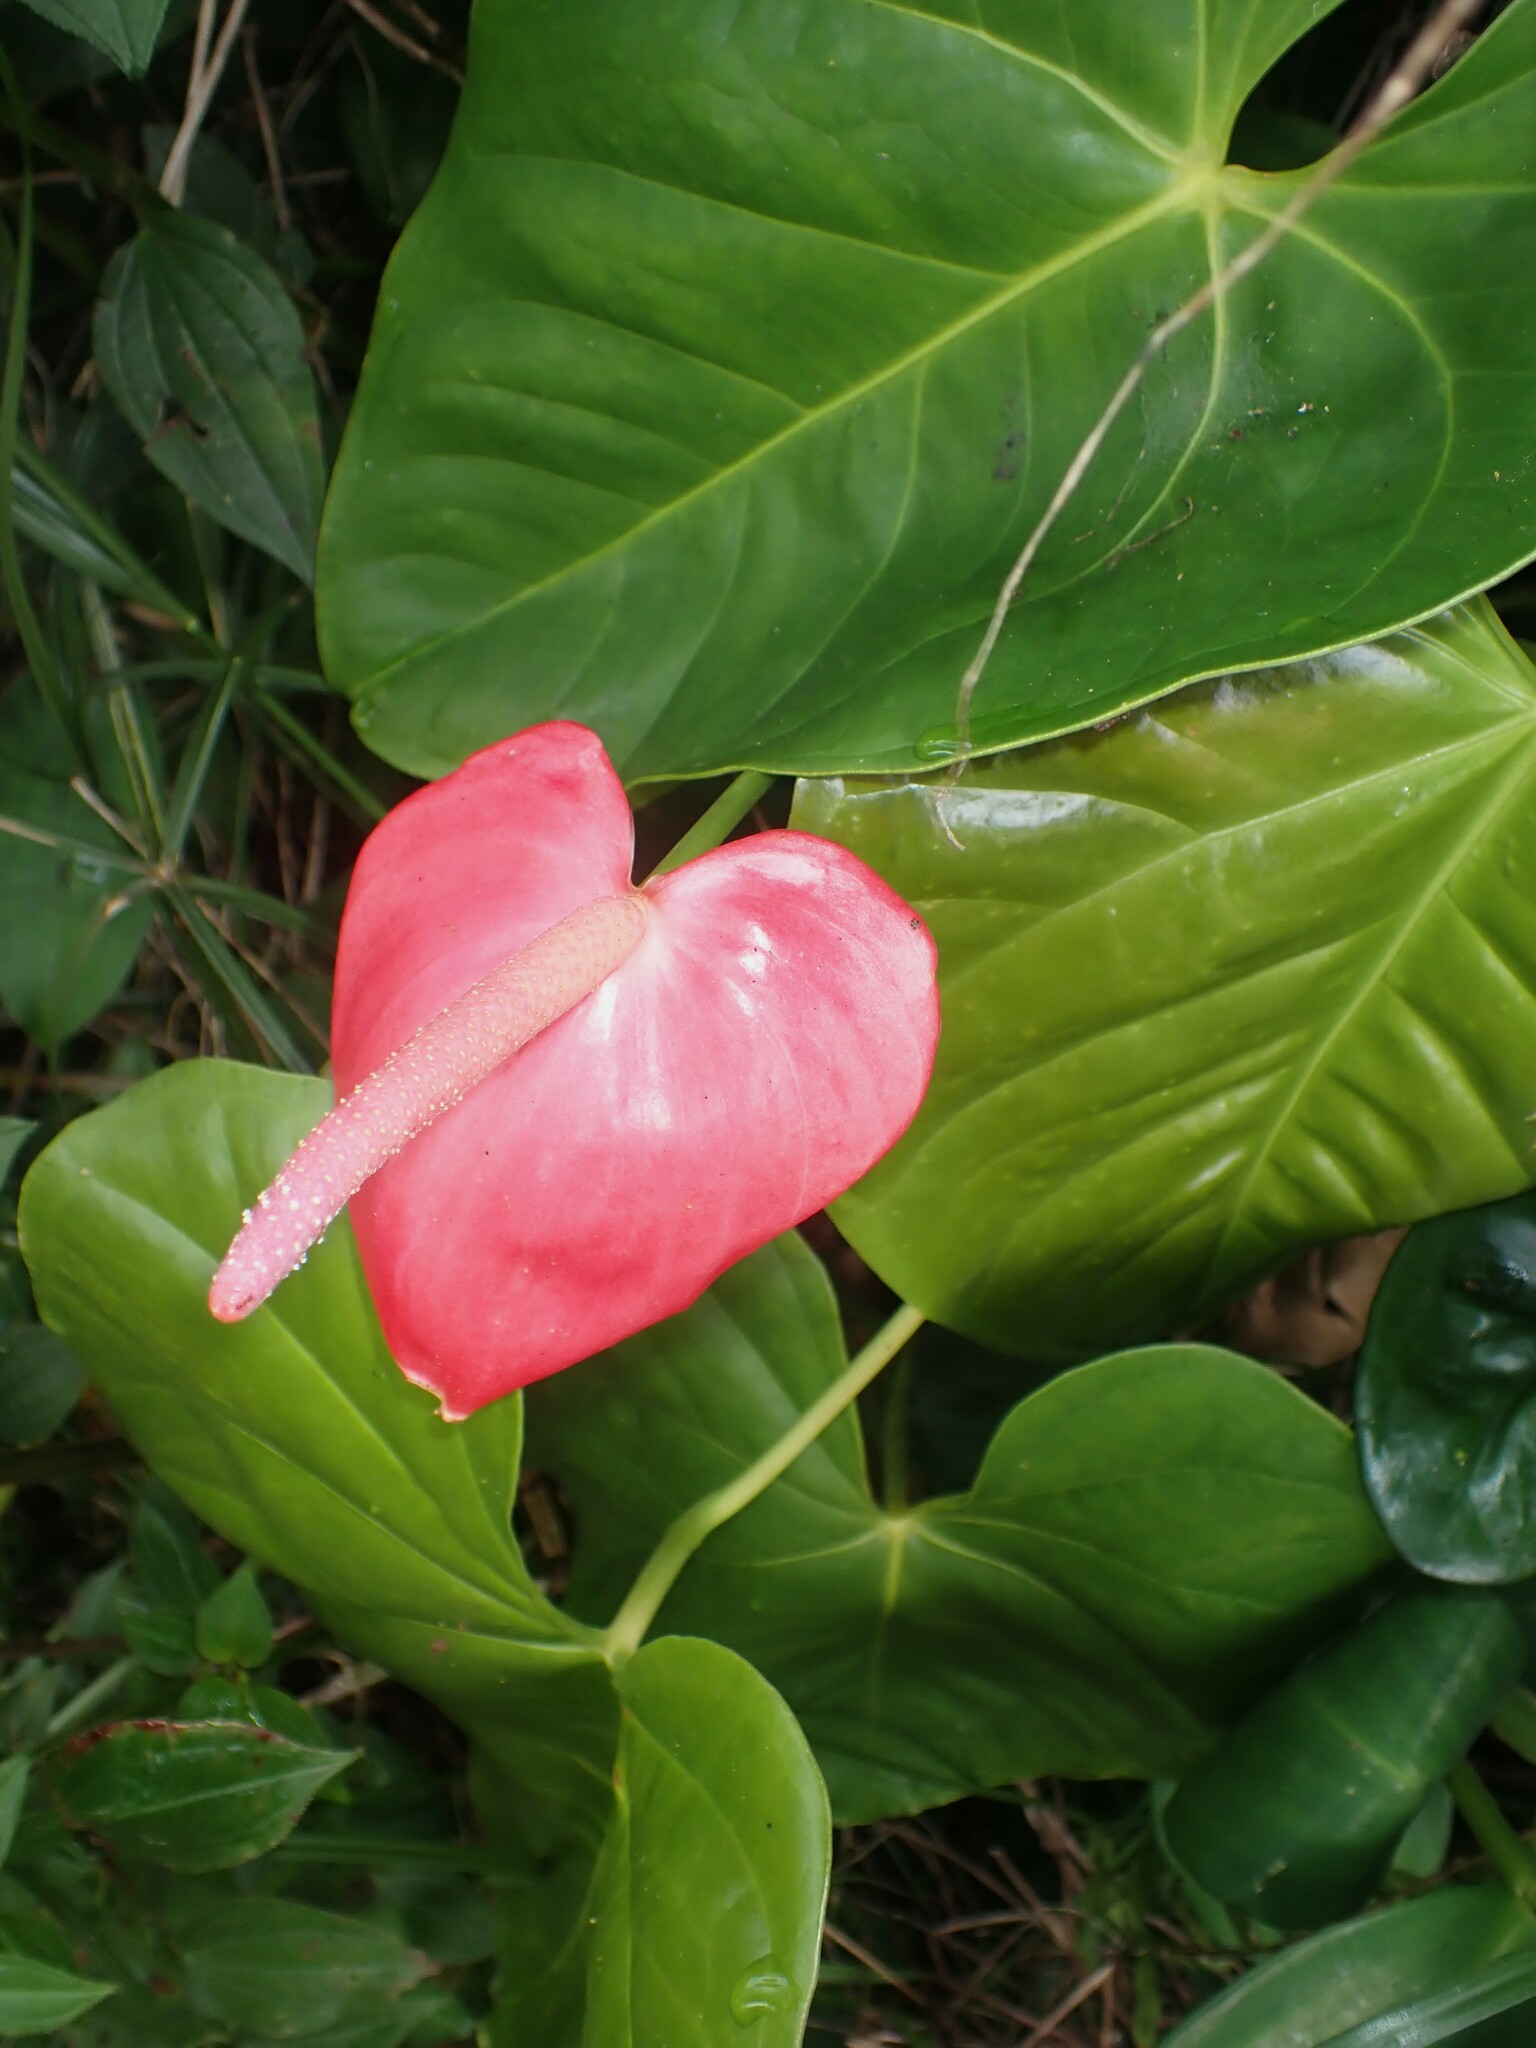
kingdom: Plantae
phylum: Tracheophyta
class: Liliopsida
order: Alismatales
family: Araceae
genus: Anthurium
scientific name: Anthurium andraeanum
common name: Flamingo-flower
